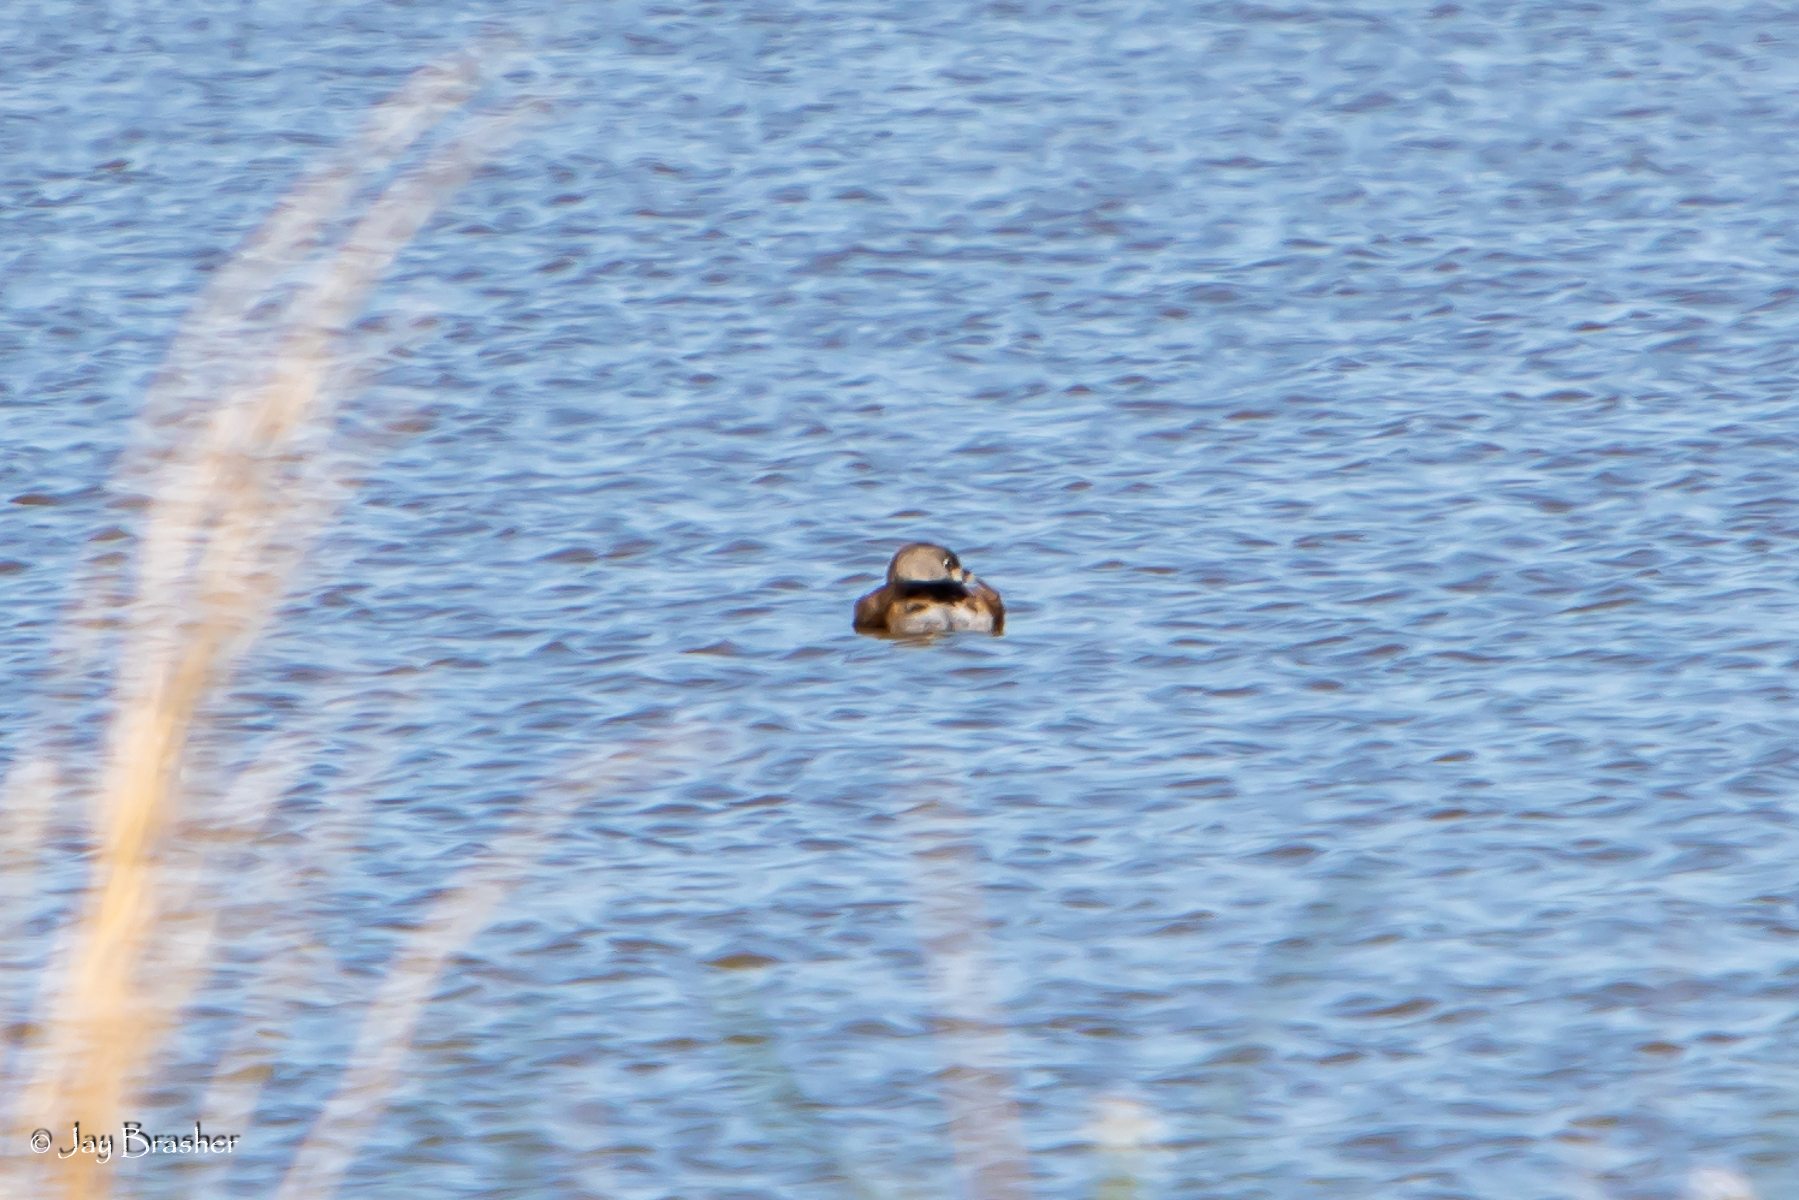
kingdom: Animalia
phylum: Chordata
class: Aves
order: Podicipediformes
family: Podicipedidae
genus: Podilymbus
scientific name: Podilymbus podiceps
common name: Pied-billed grebe
